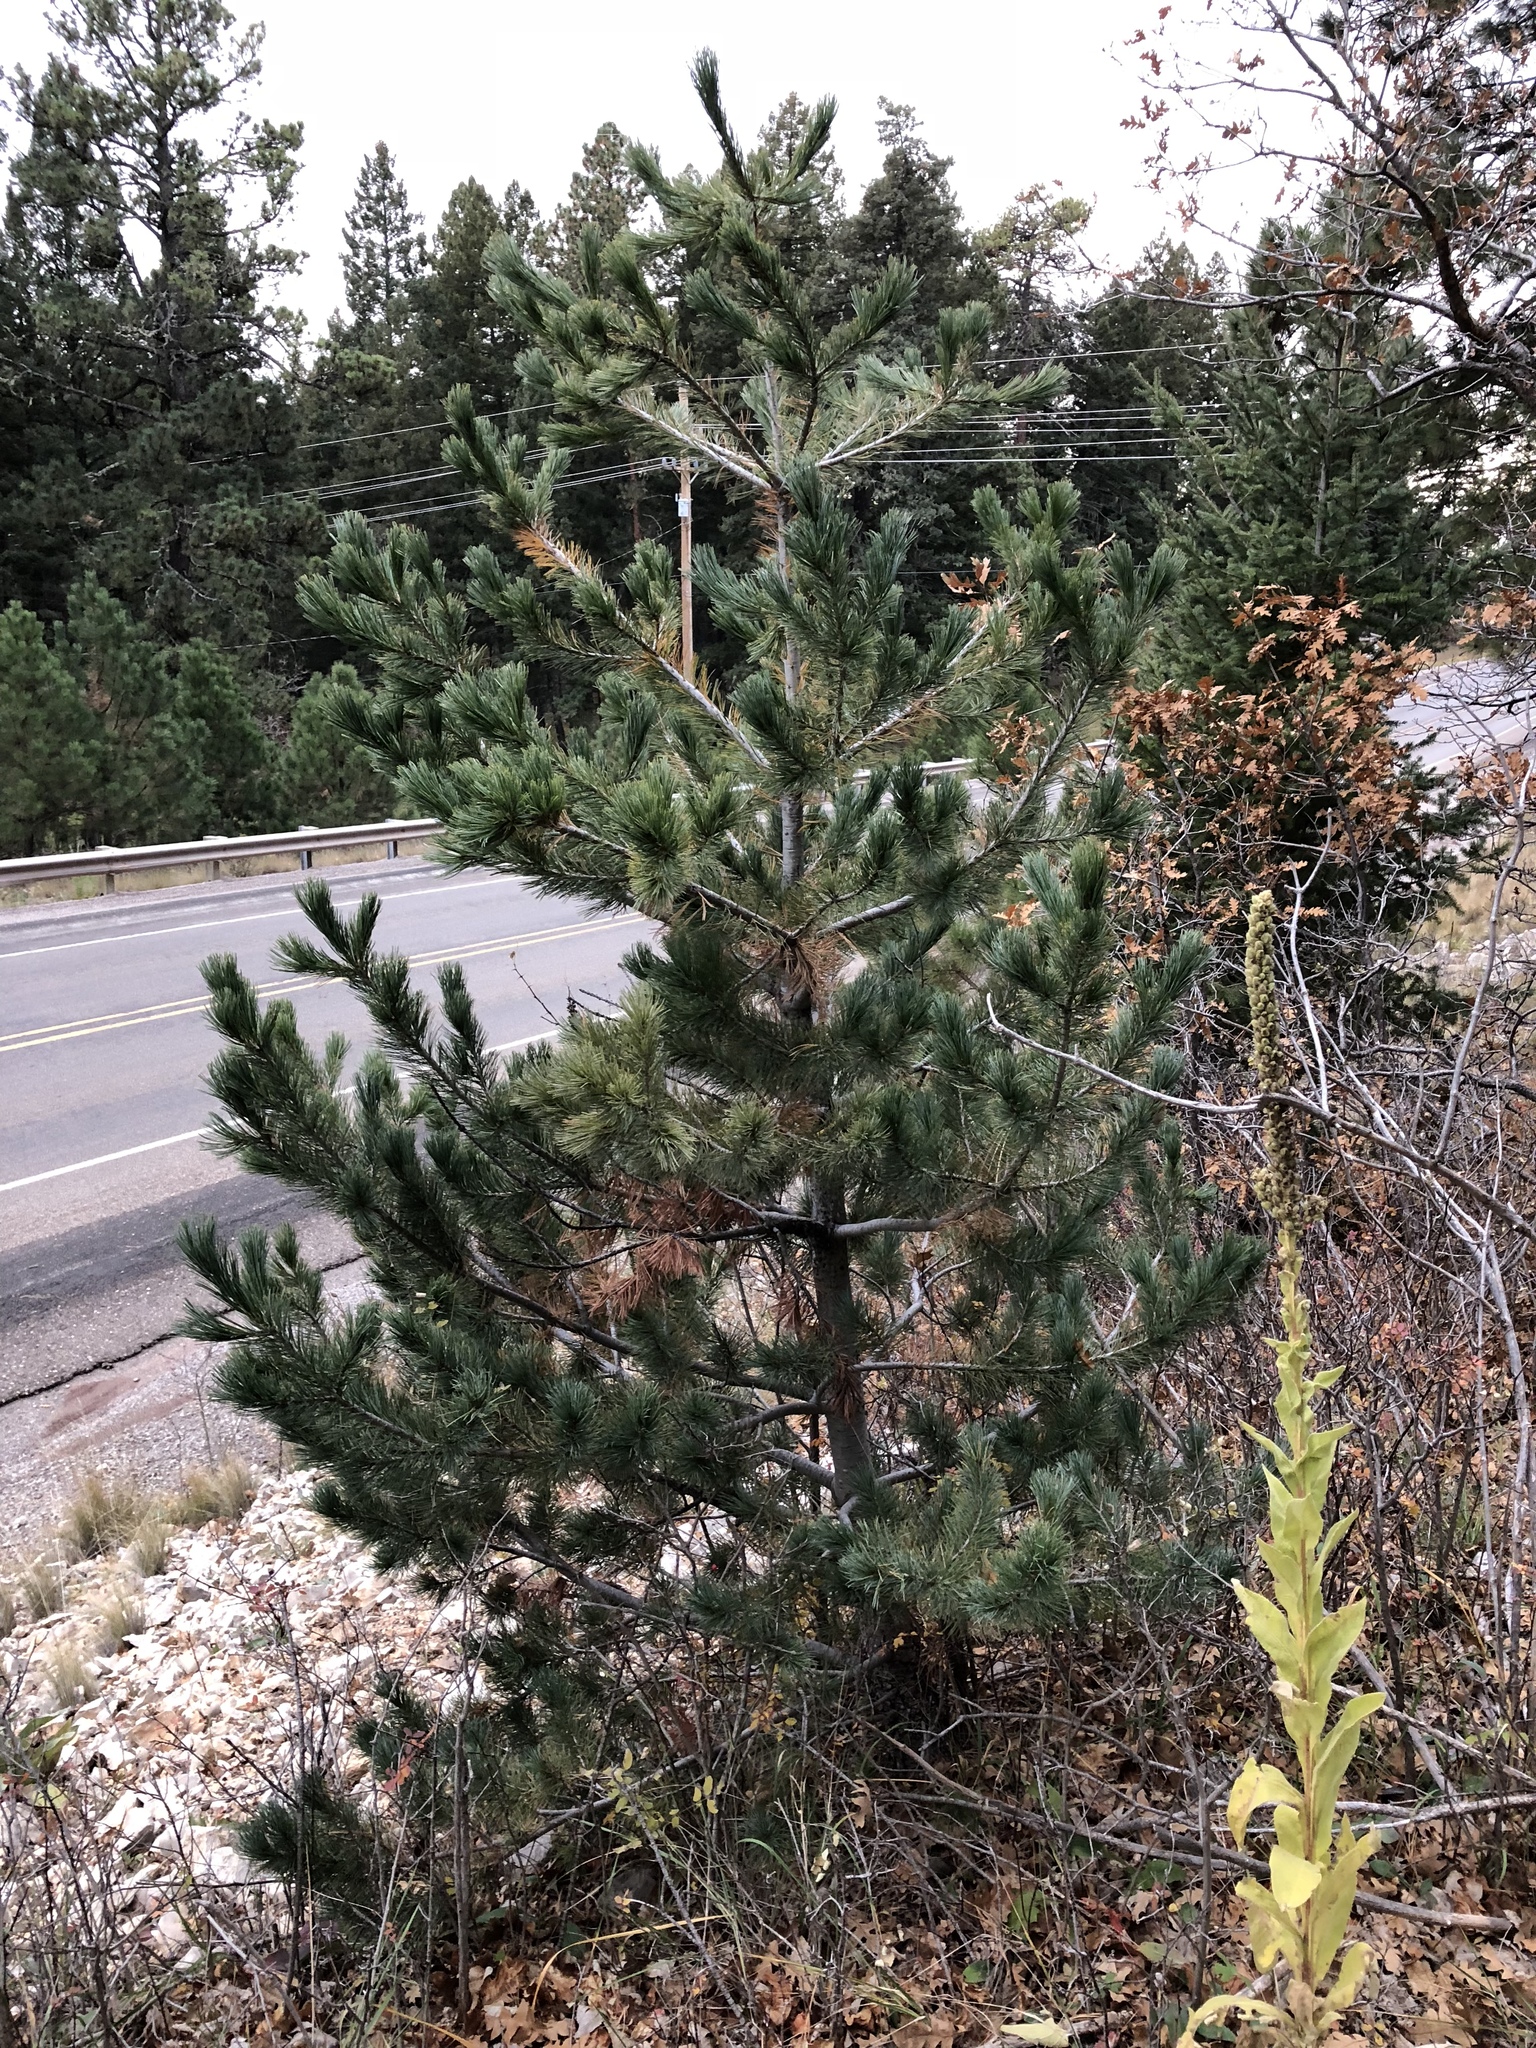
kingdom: Plantae
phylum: Tracheophyta
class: Pinopsida
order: Pinales
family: Pinaceae
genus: Pinus
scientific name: Pinus strobiformis
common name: Southwestern white pine
